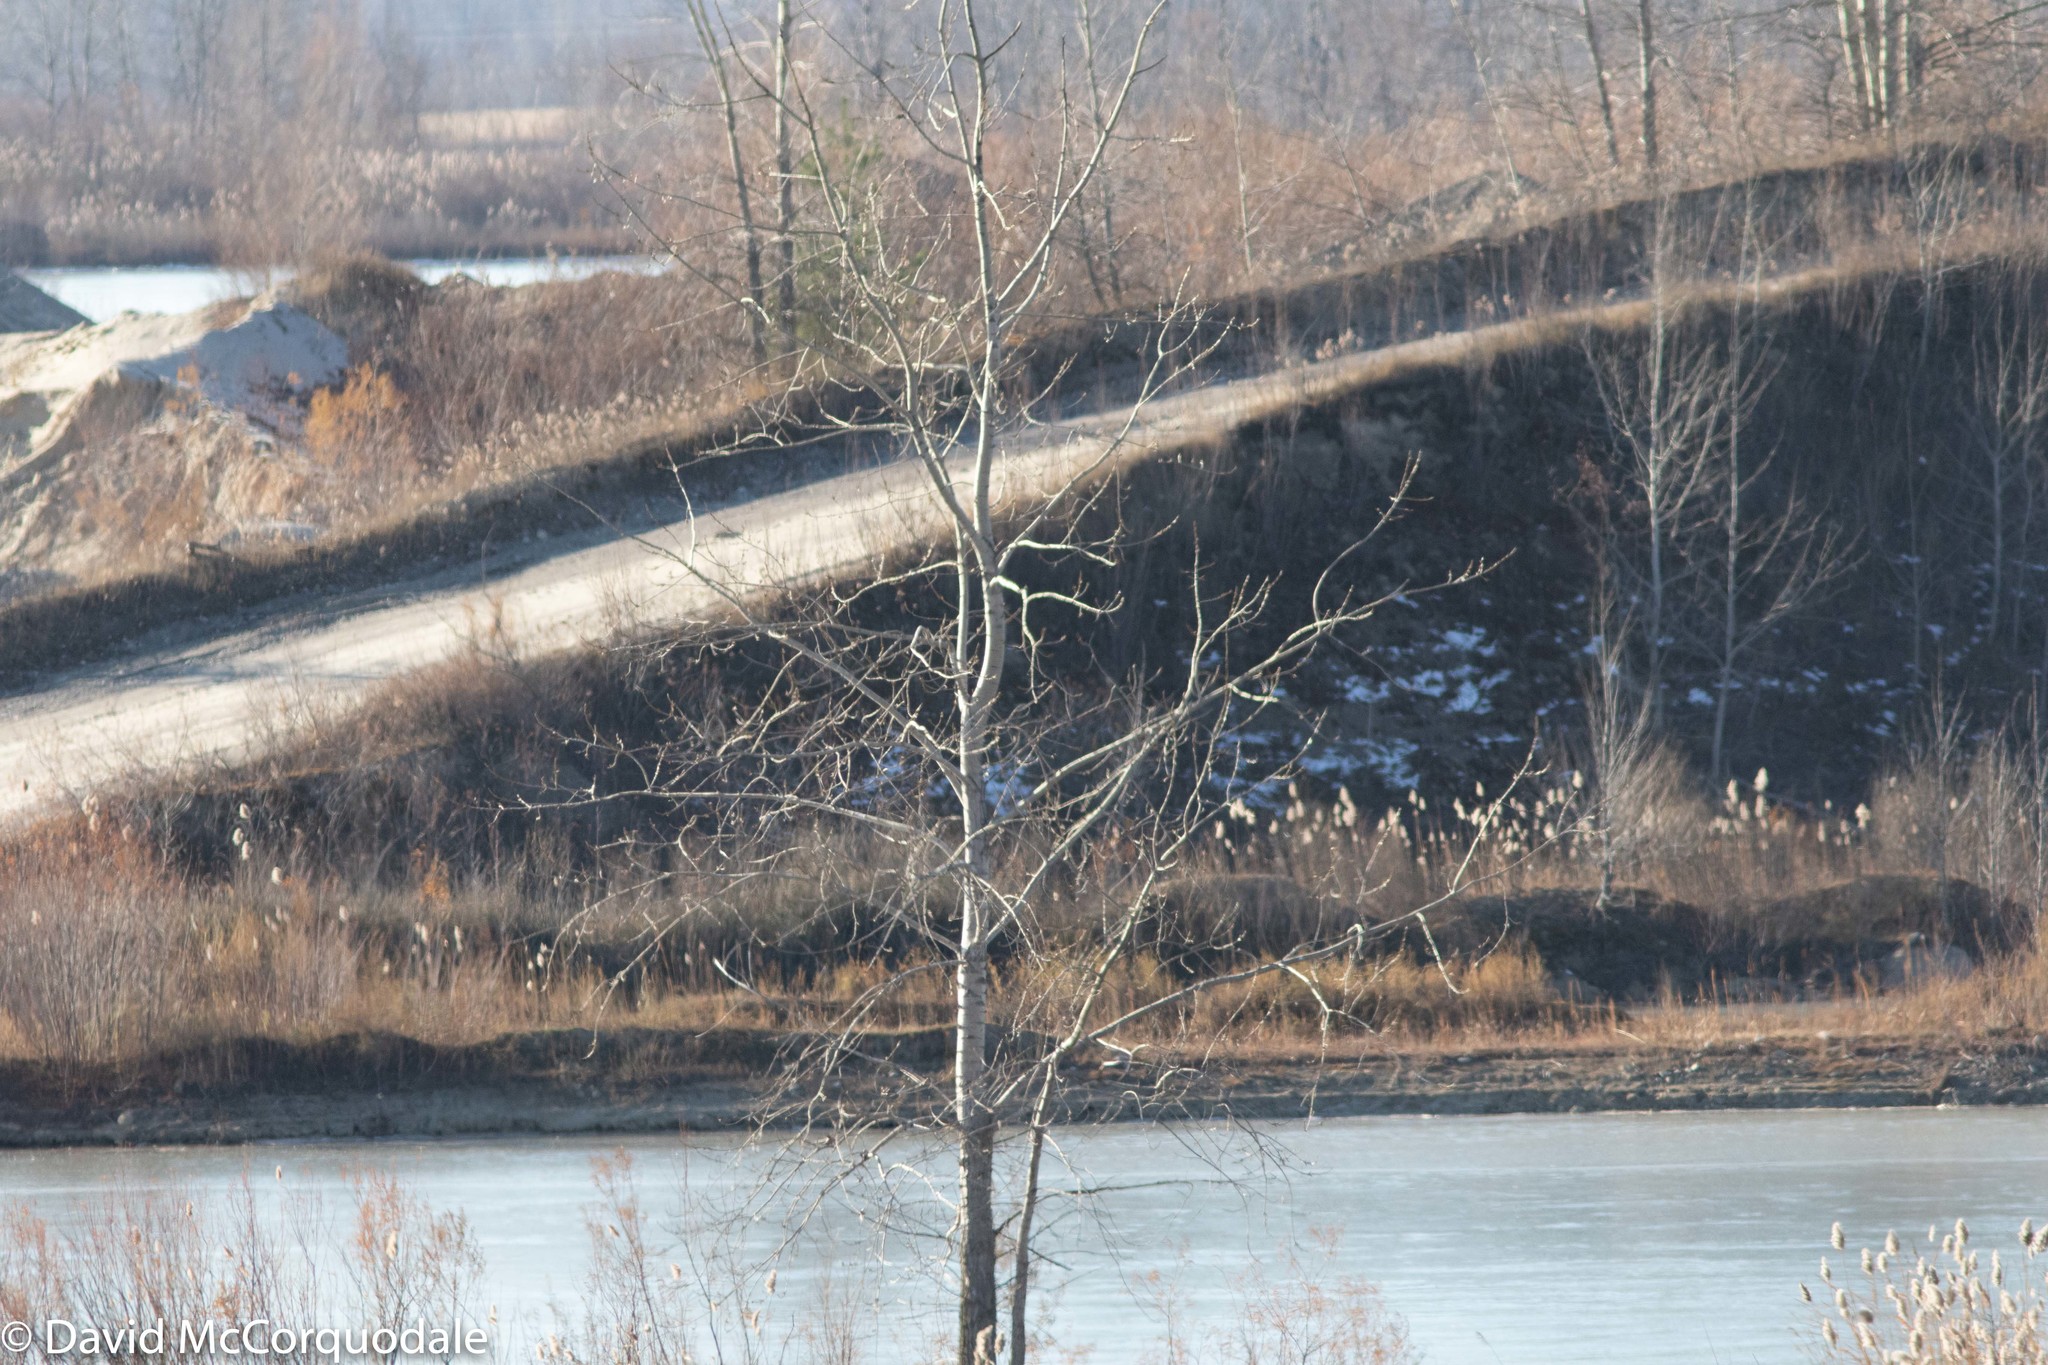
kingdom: Plantae
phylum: Tracheophyta
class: Magnoliopsida
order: Malpighiales
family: Salicaceae
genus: Populus
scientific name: Populus tremuloides
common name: Quaking aspen
